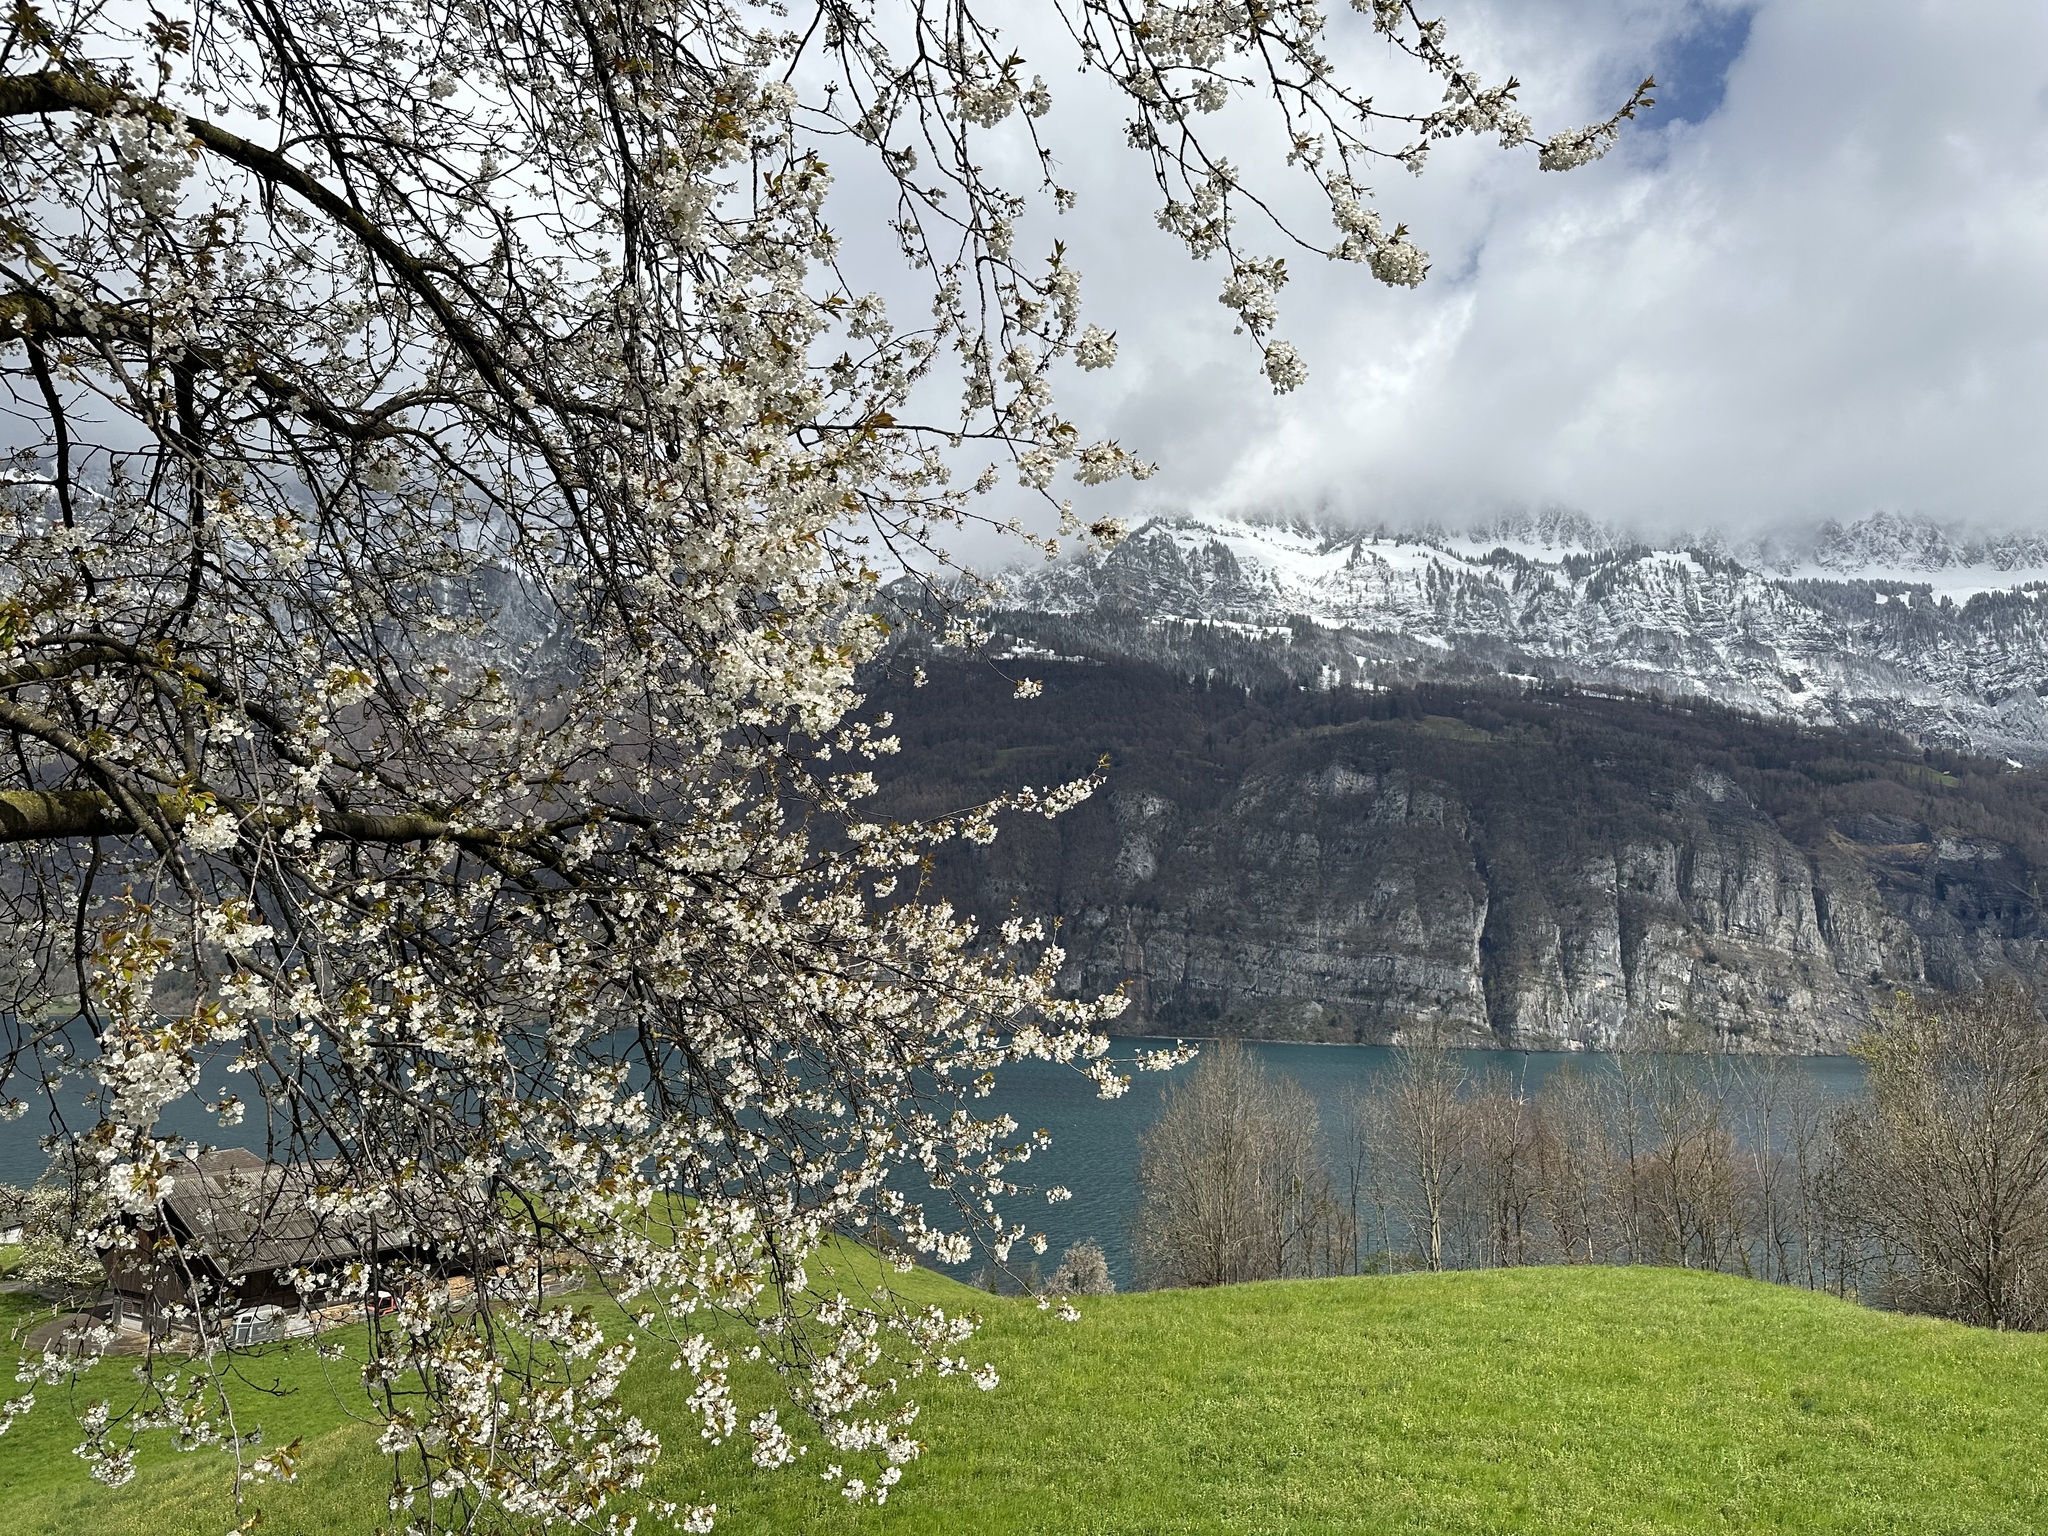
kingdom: Plantae
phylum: Tracheophyta
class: Magnoliopsida
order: Rosales
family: Rosaceae
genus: Prunus
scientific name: Prunus avium
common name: Sweet cherry
